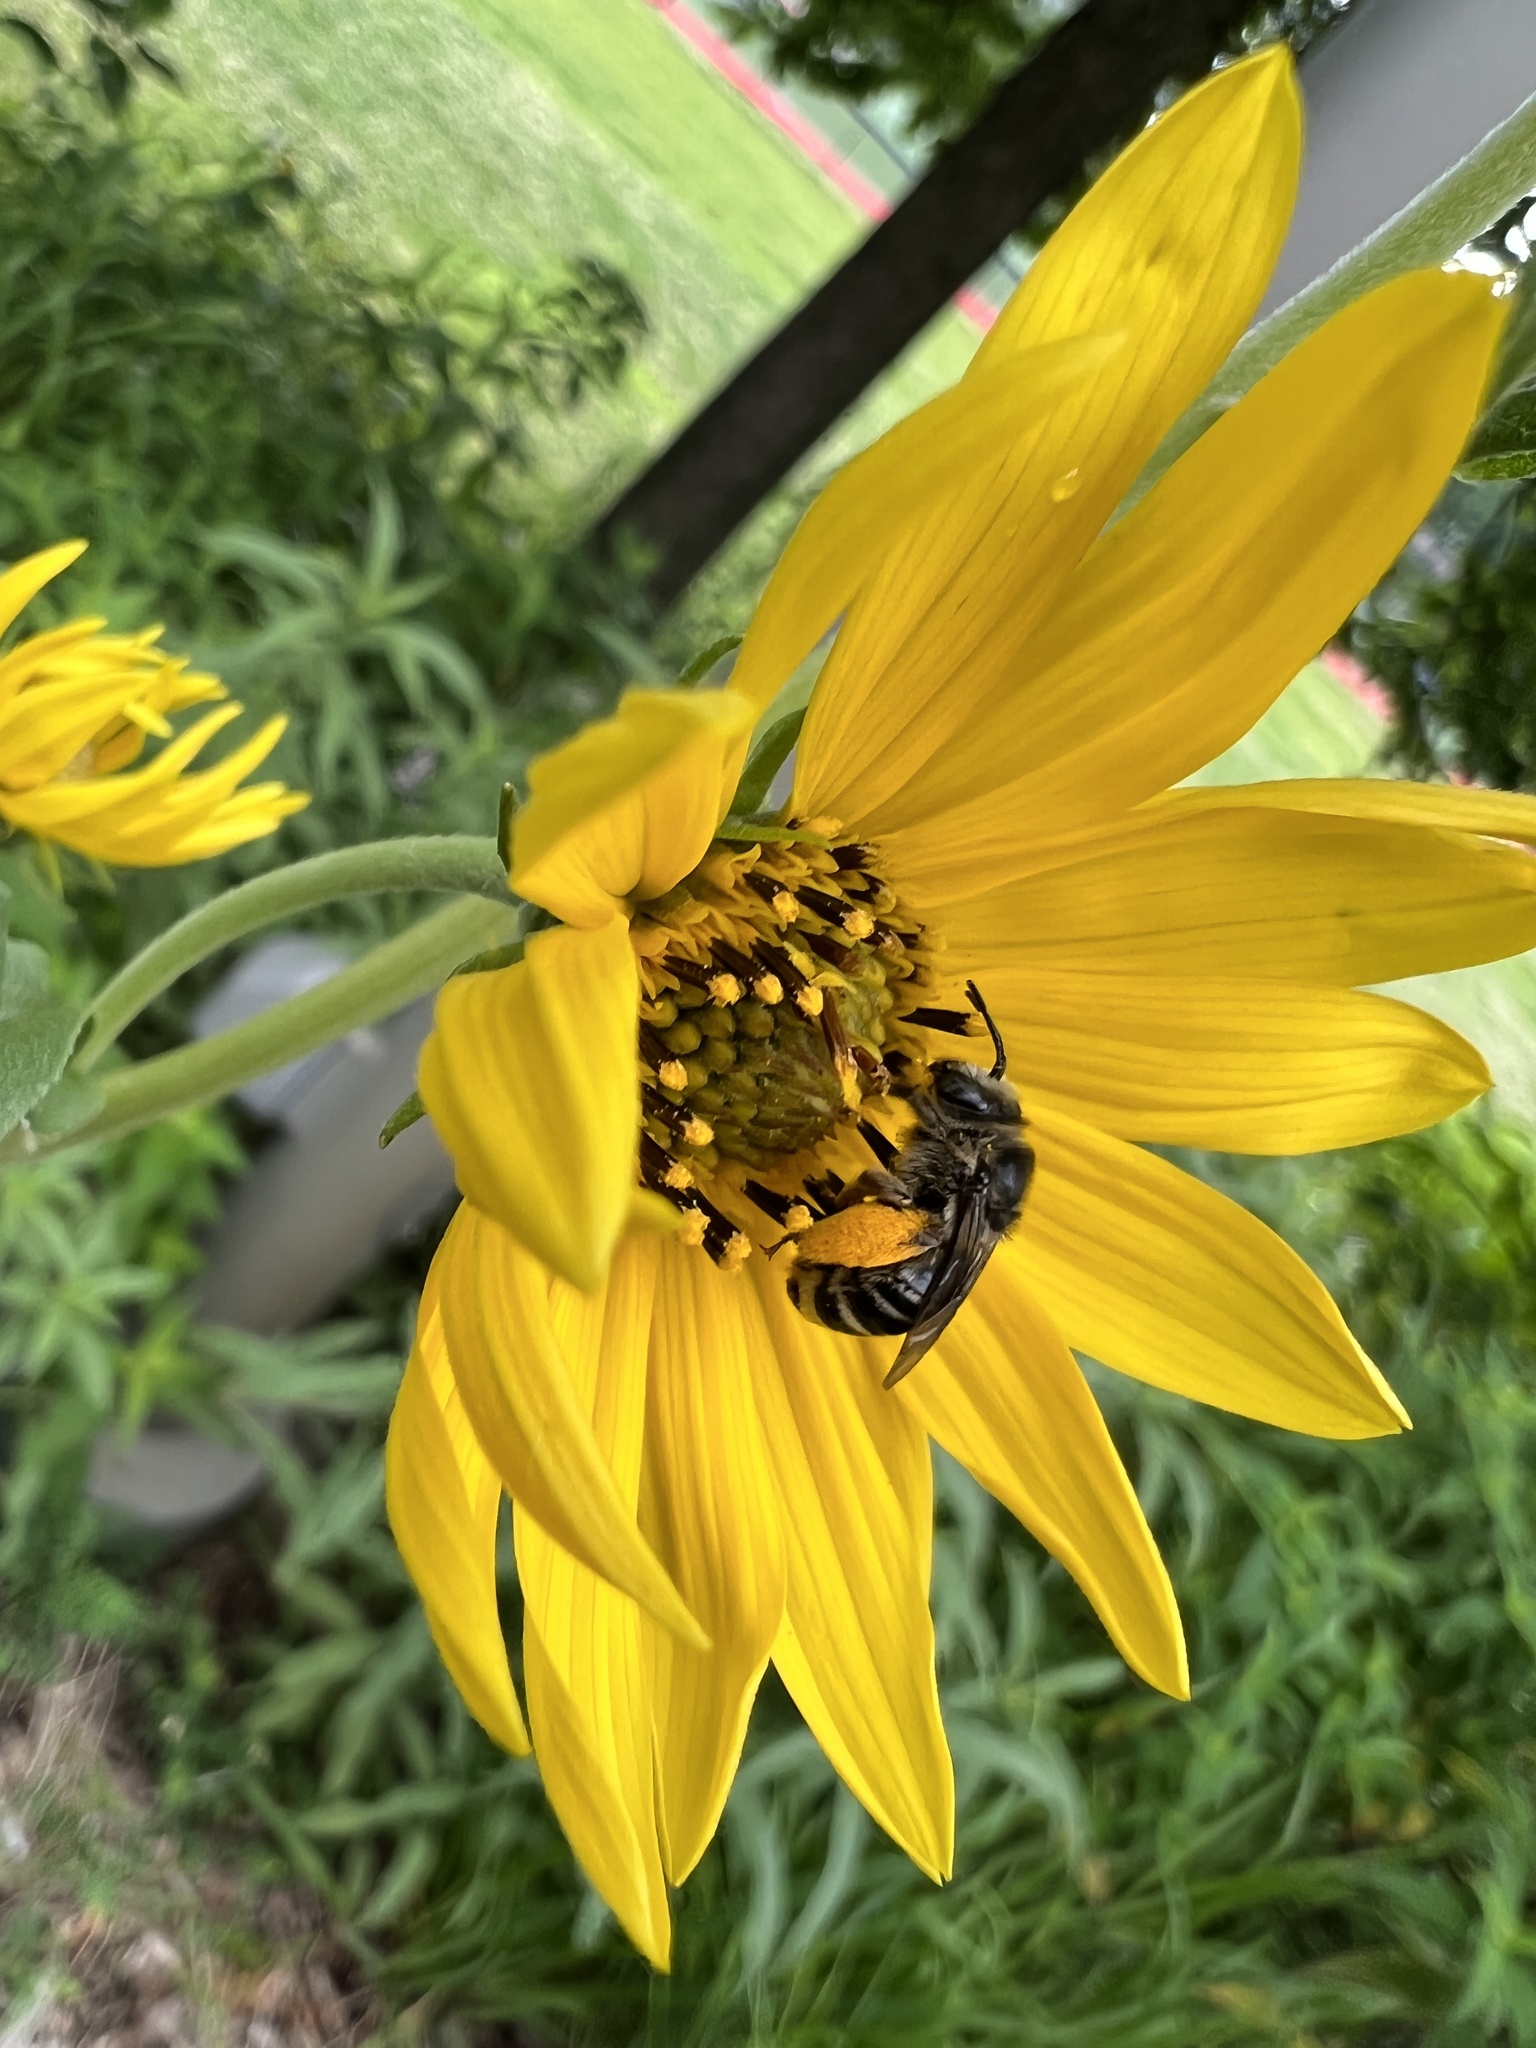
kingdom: Animalia
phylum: Arthropoda
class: Insecta
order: Hymenoptera
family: Apidae
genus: Melissodes
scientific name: Melissodes subillatus
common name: Vigorous long-horned bee
